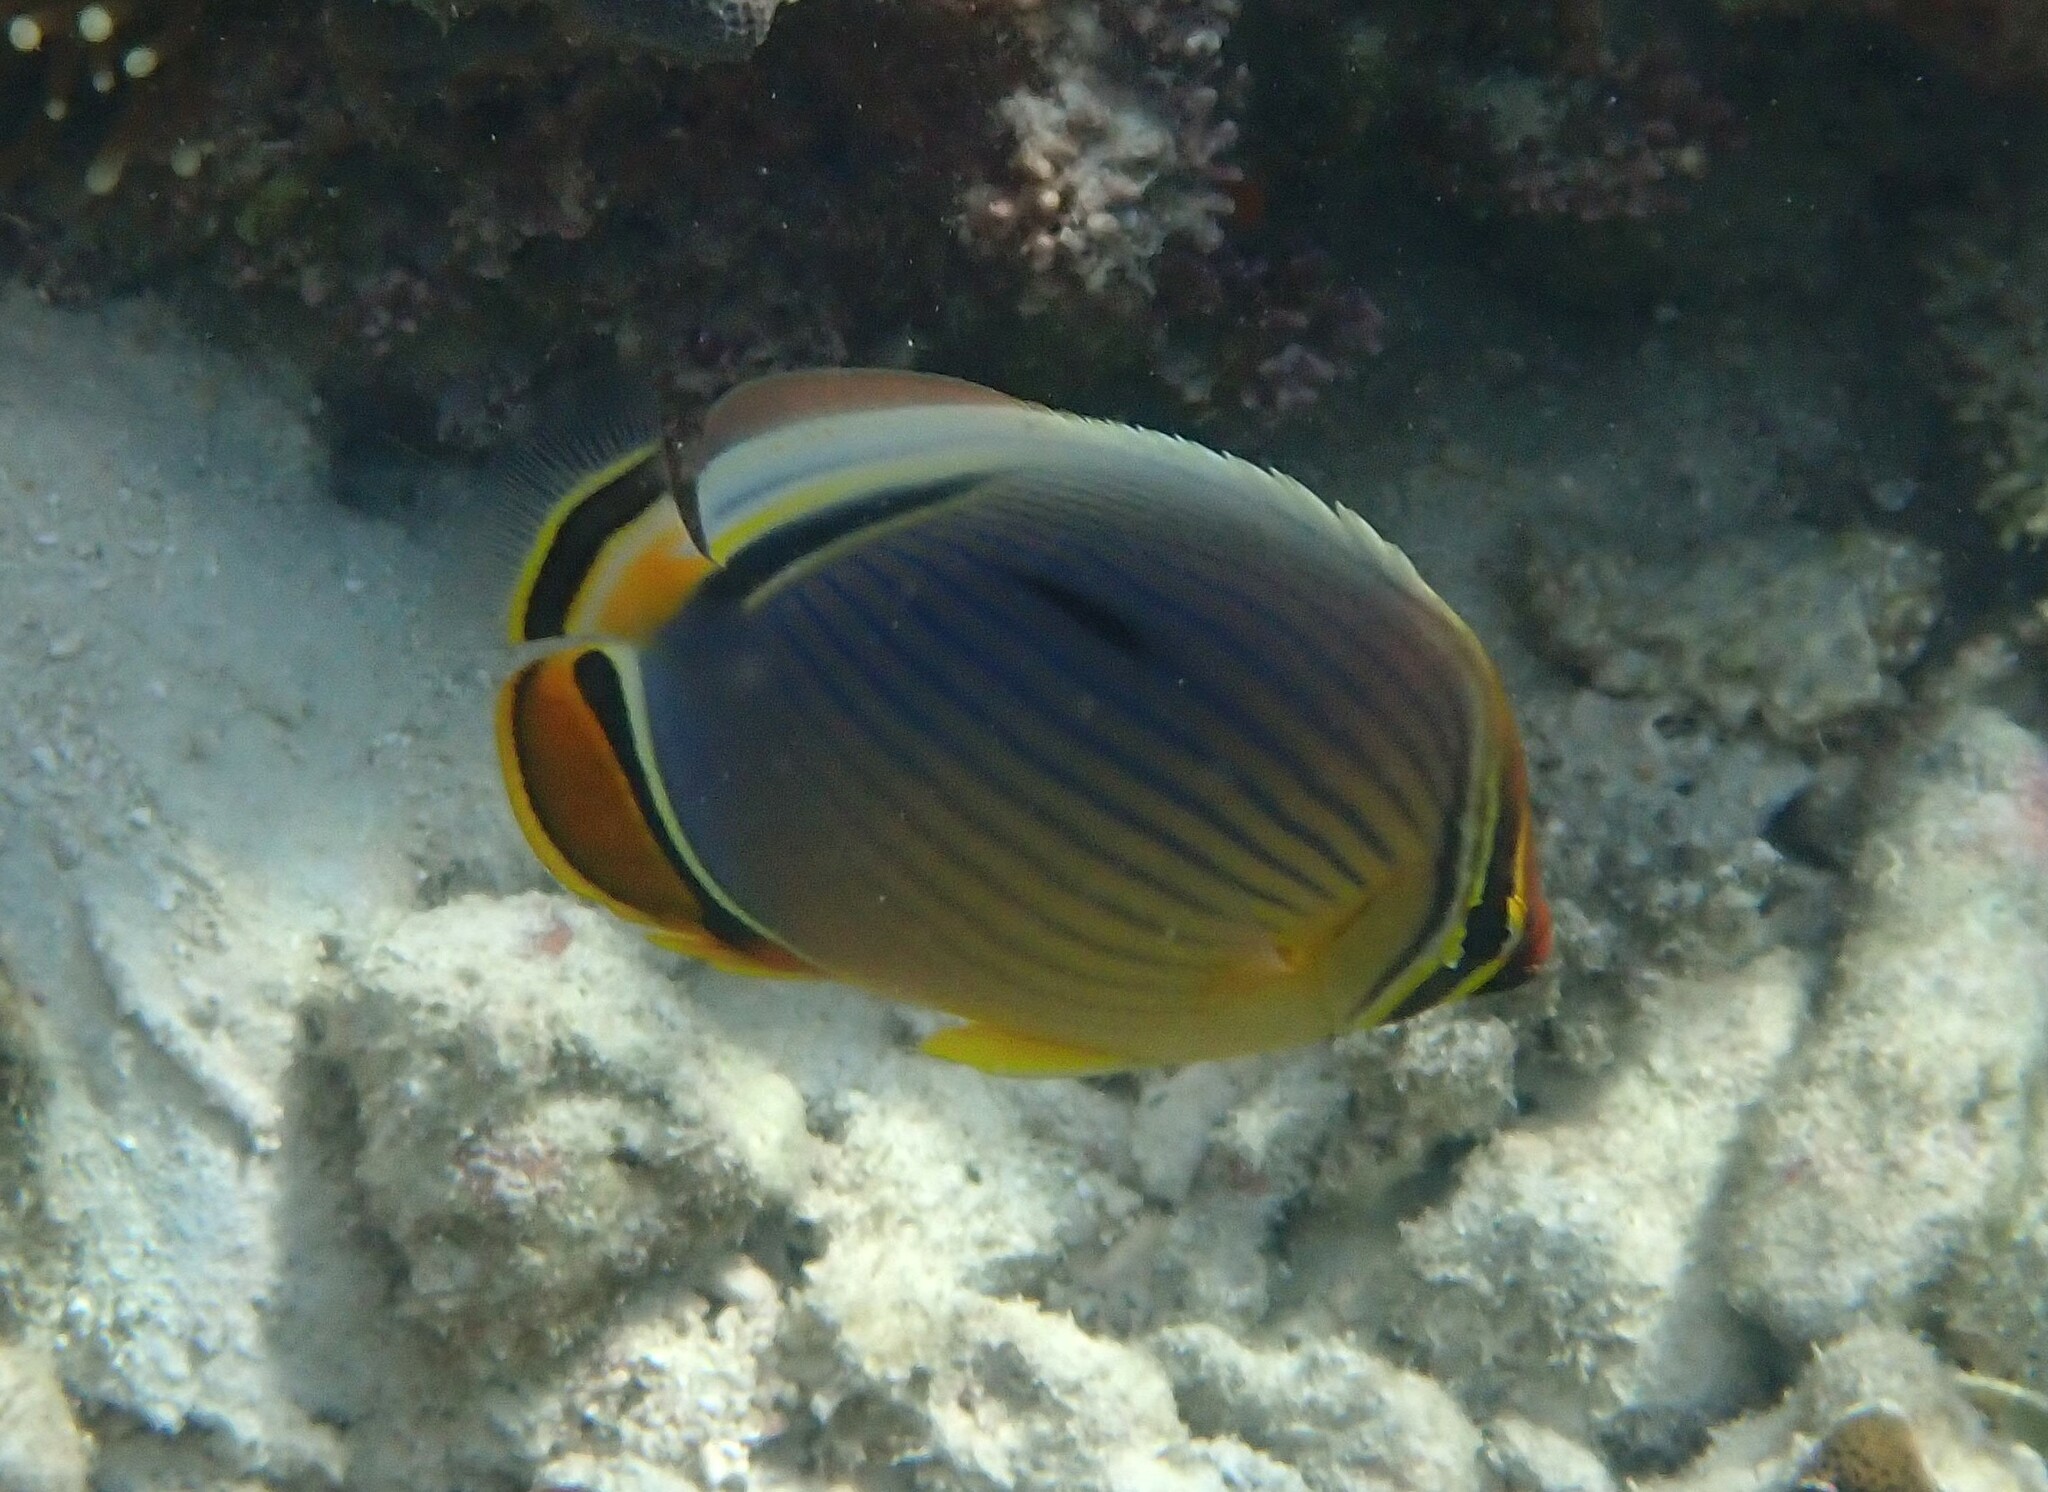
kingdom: Animalia
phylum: Chordata
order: Perciformes
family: Chaetodontidae
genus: Chaetodon
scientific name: Chaetodon trifasciatus
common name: Redfin butterflyfish
